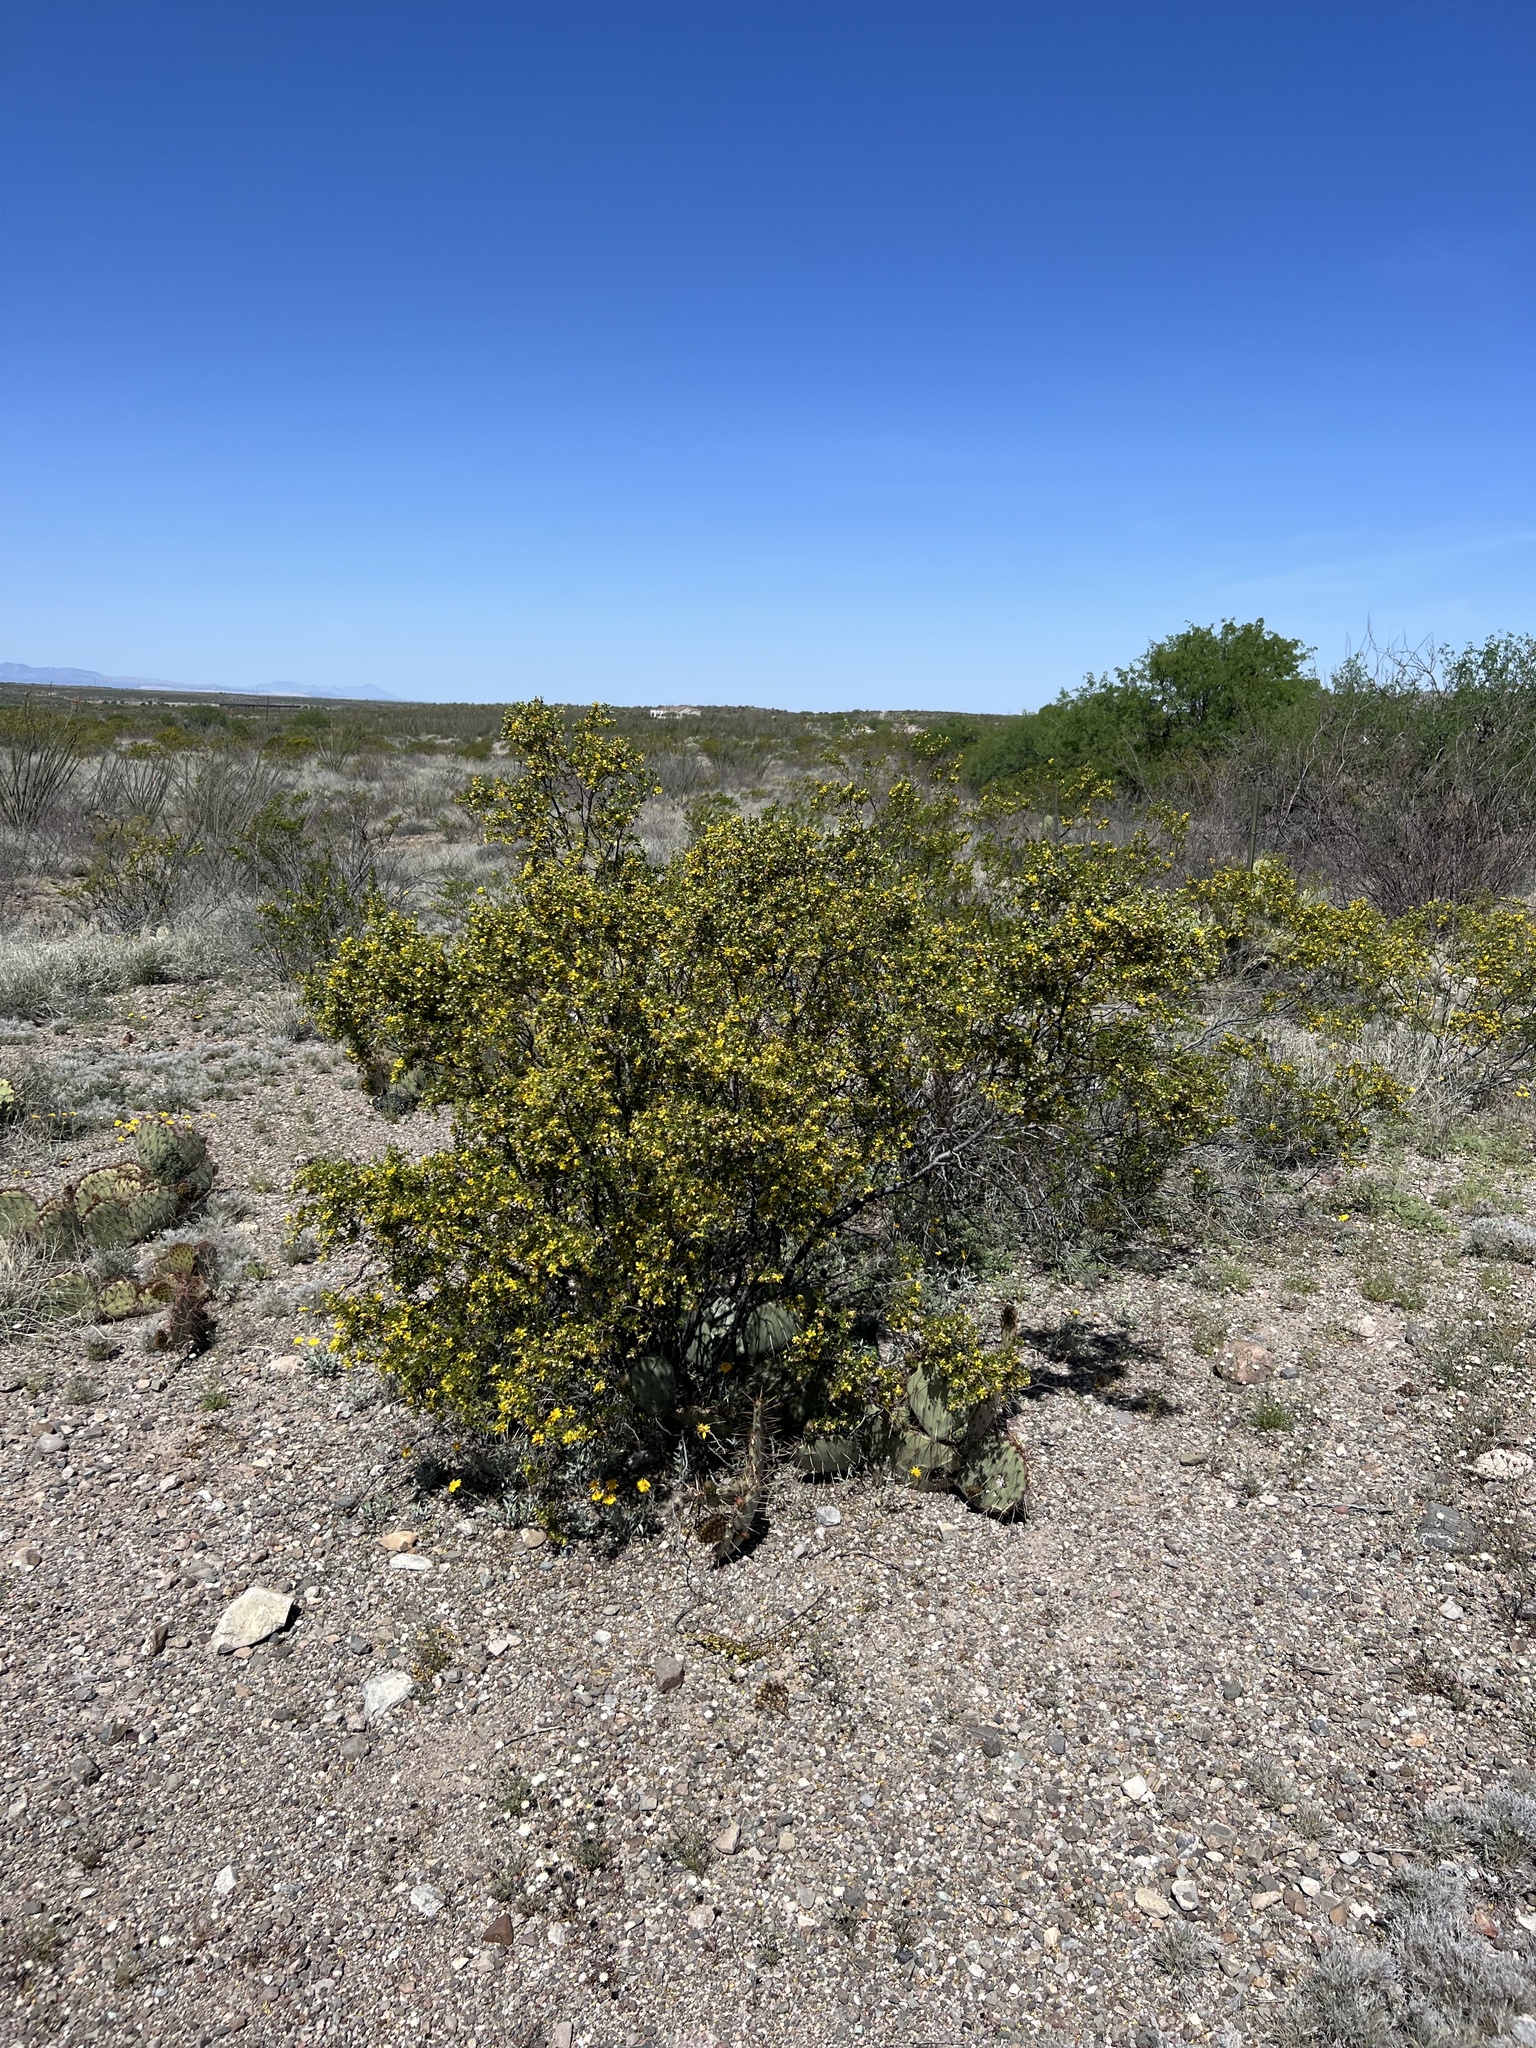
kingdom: Plantae
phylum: Tracheophyta
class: Magnoliopsida
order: Zygophyllales
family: Zygophyllaceae
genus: Larrea
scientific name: Larrea tridentata
